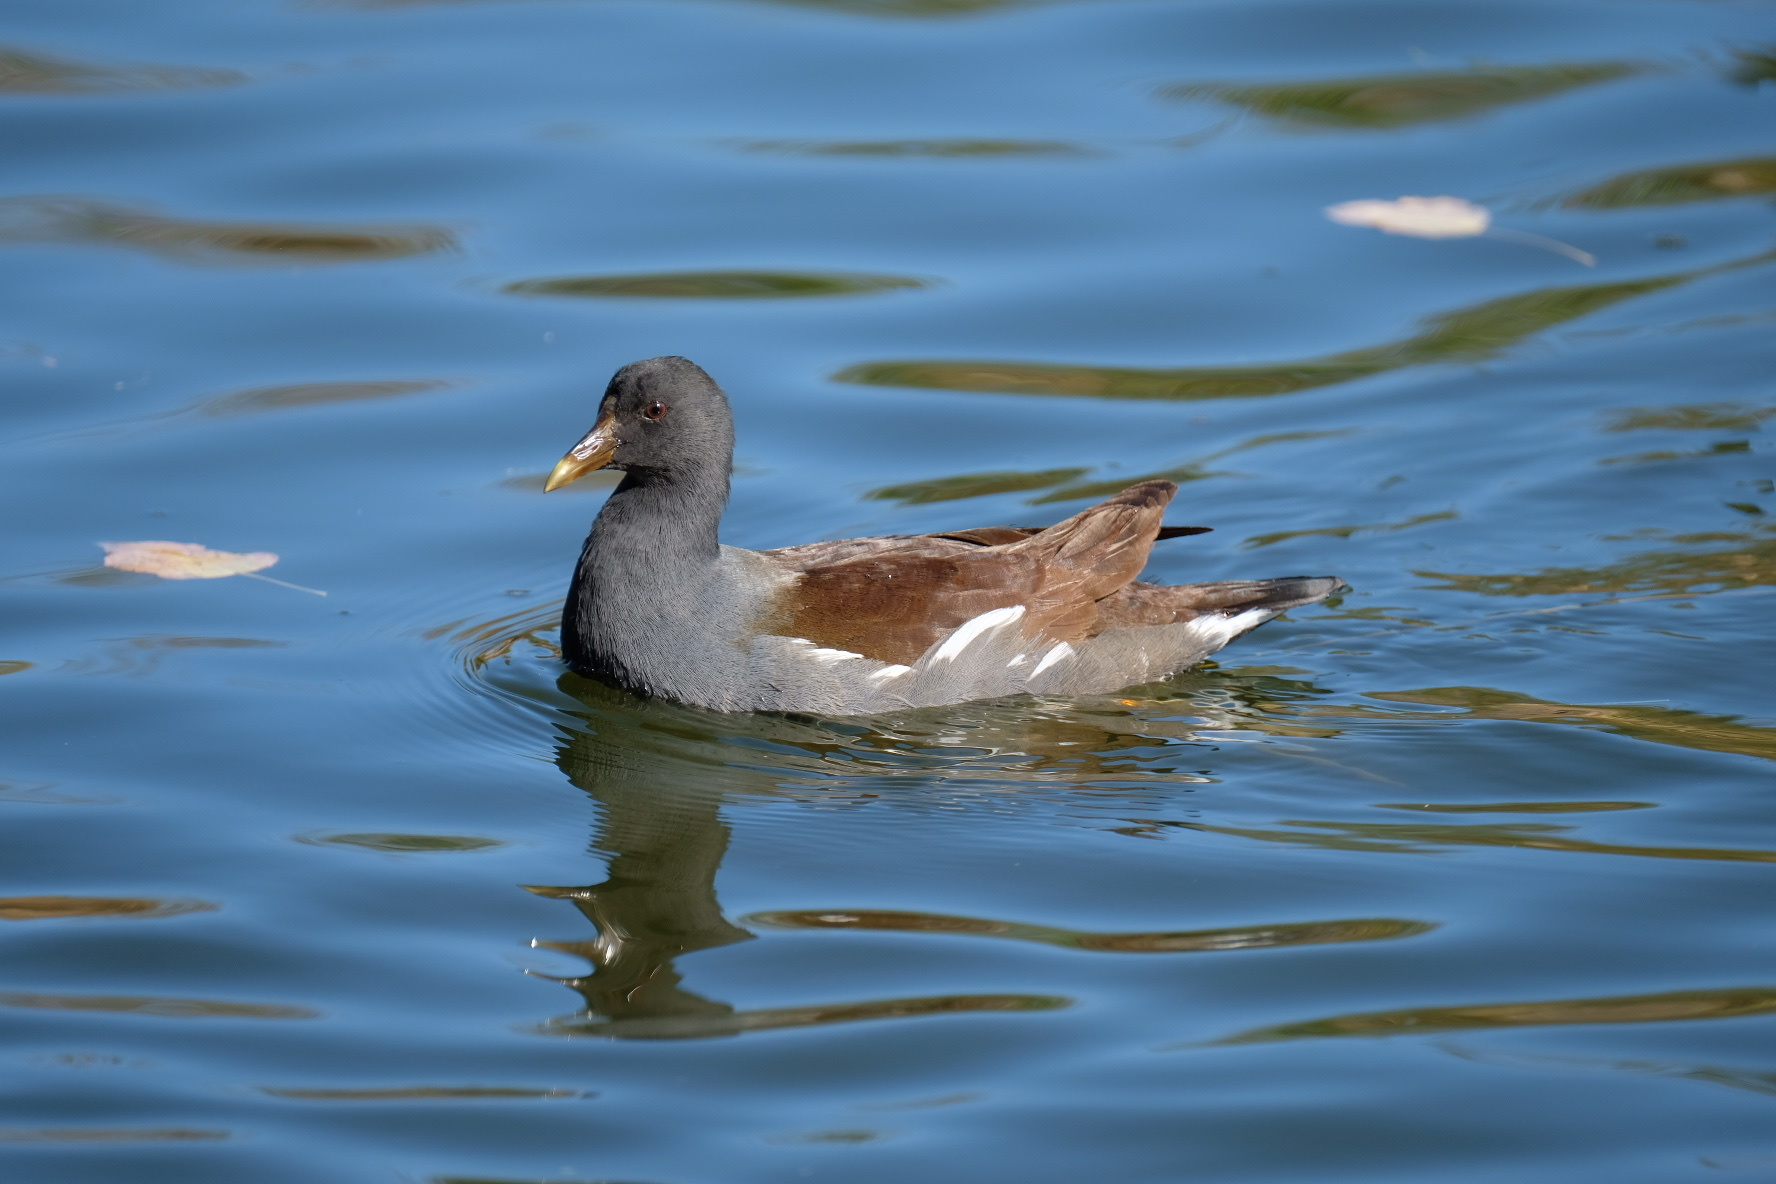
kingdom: Animalia
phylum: Chordata
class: Aves
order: Gruiformes
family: Rallidae
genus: Gallinula
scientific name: Gallinula chloropus
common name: Common moorhen
